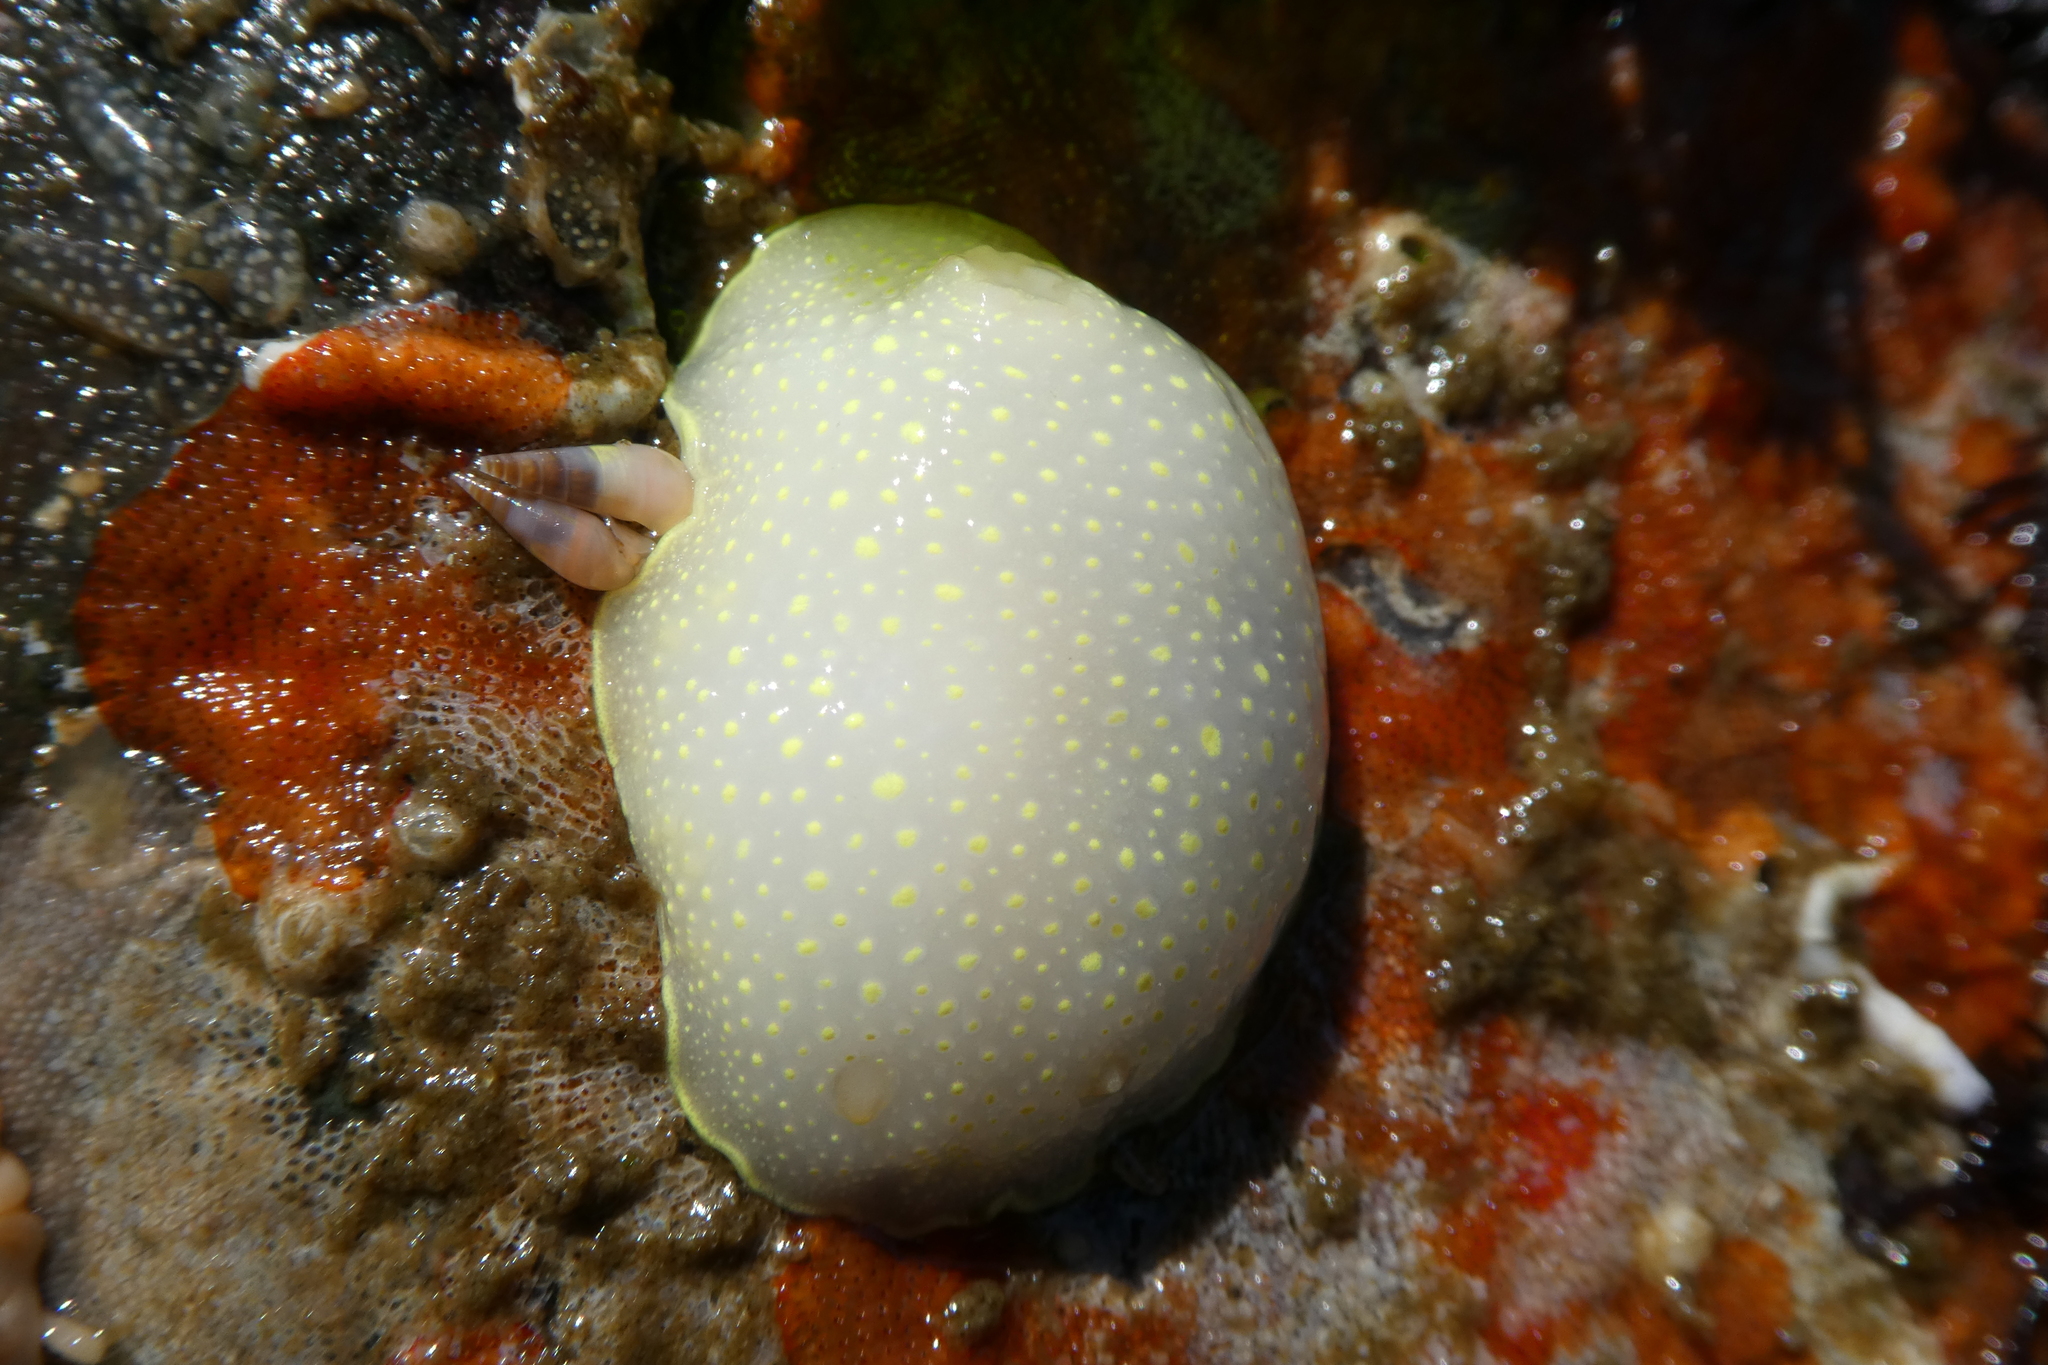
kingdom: Animalia
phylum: Mollusca
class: Gastropoda
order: Nudibranchia
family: Cadlinidae
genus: Cadlina
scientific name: Cadlina luteomarginata
